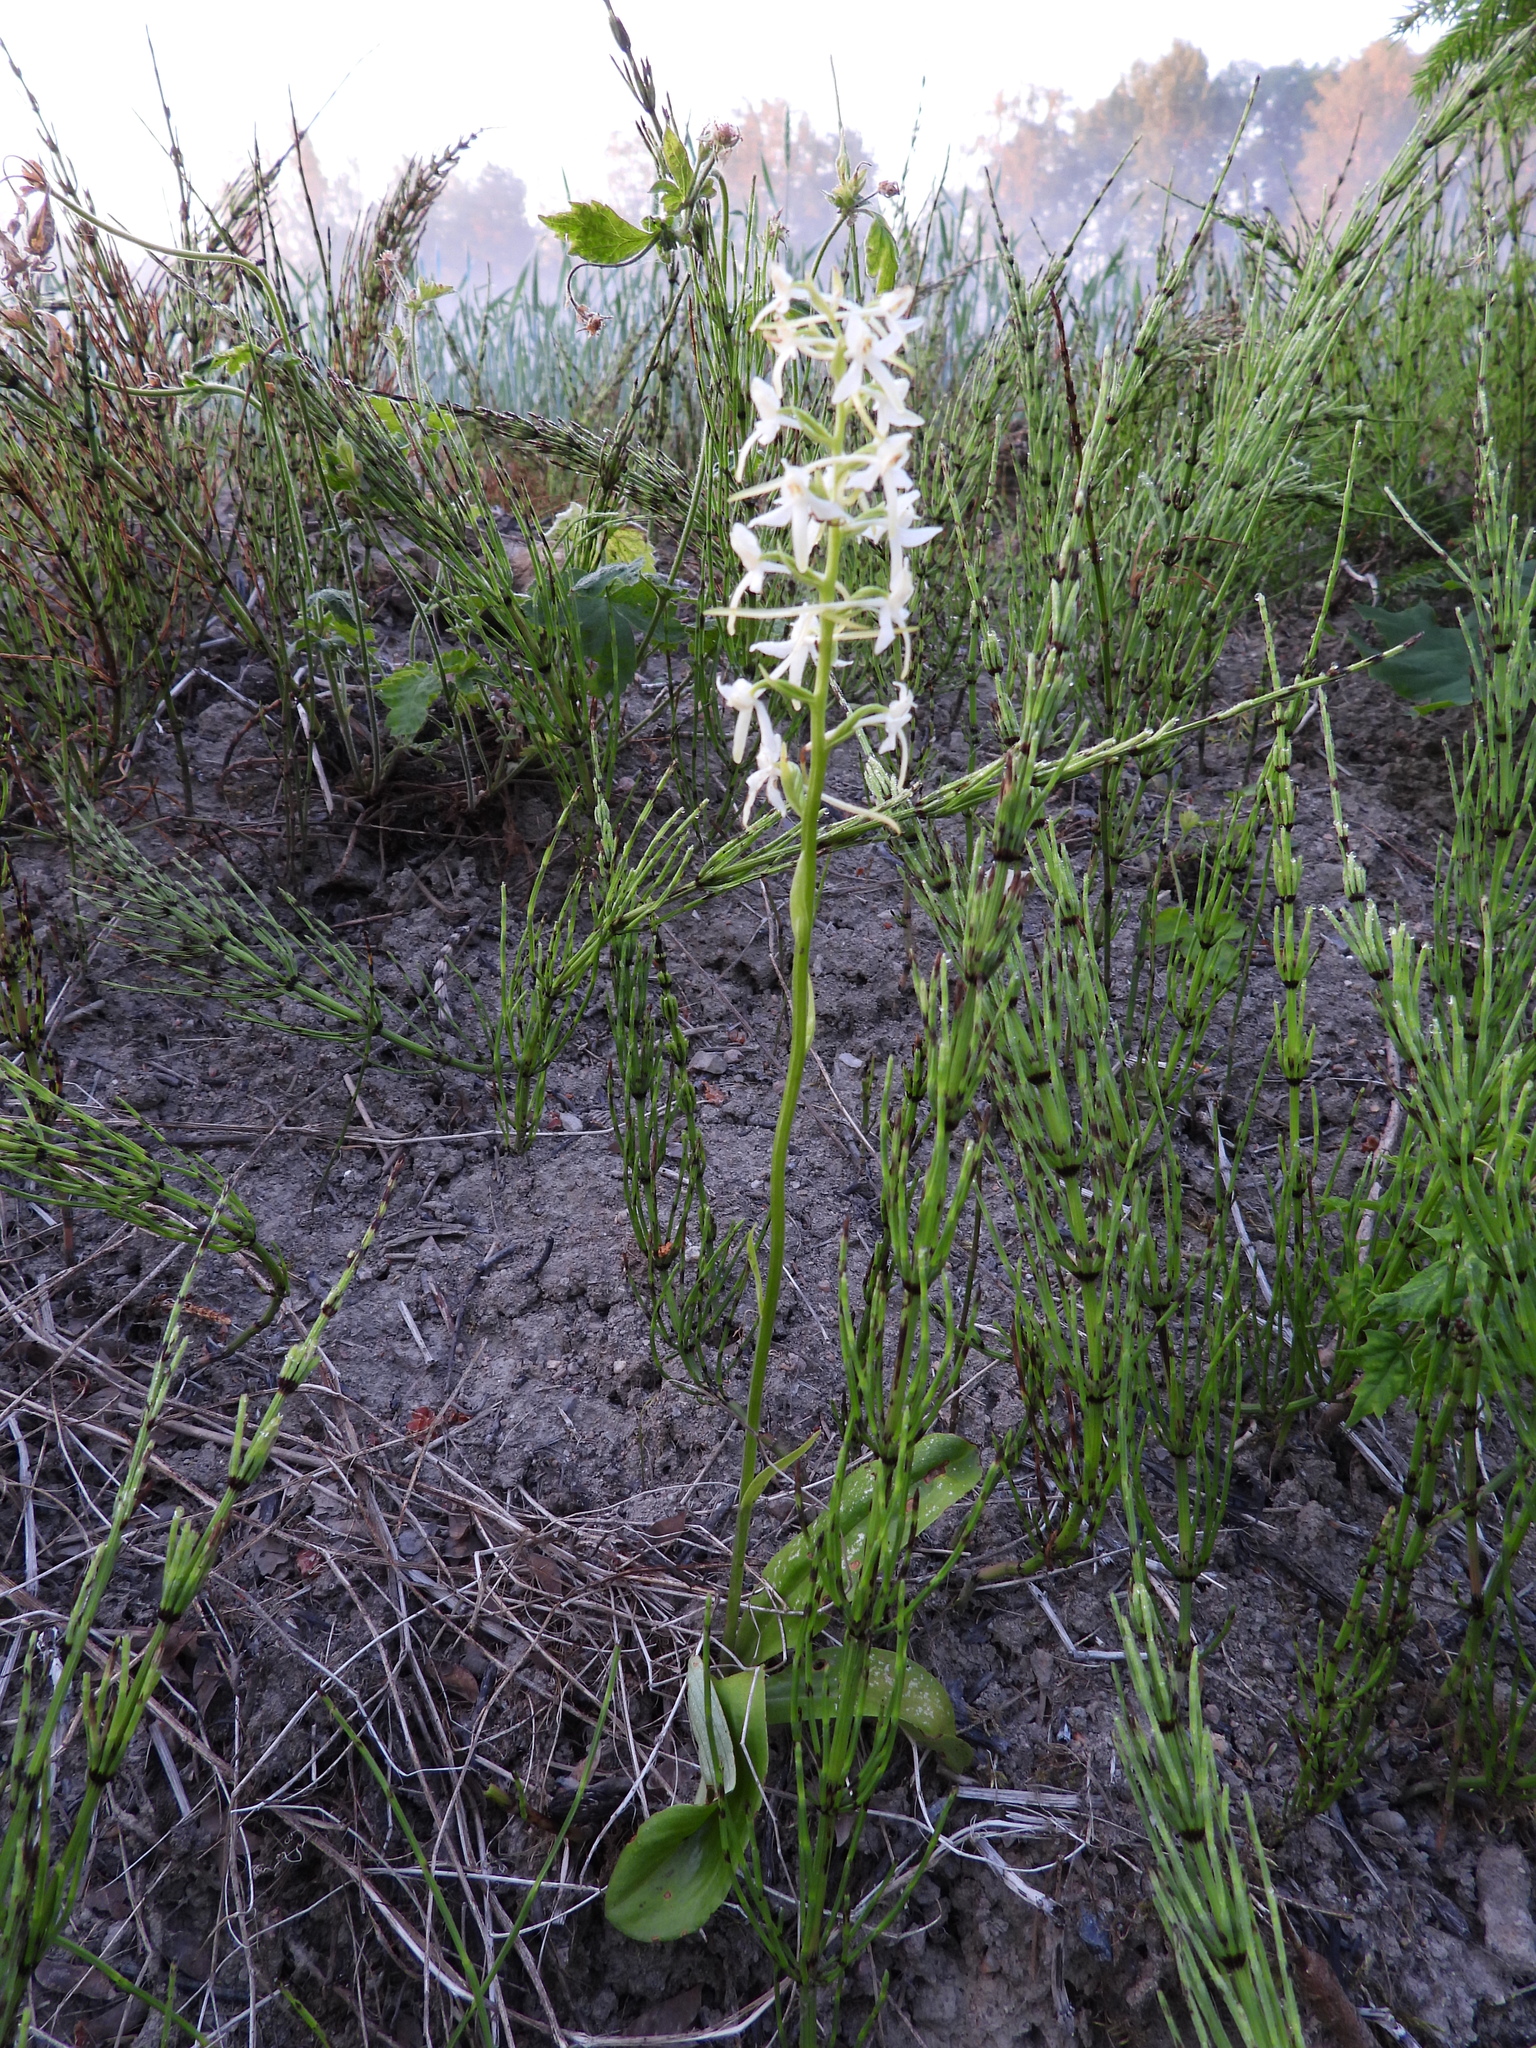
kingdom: Plantae
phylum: Tracheophyta
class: Liliopsida
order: Asparagales
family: Orchidaceae
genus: Platanthera
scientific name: Platanthera bifolia
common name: Lesser butterfly-orchid
